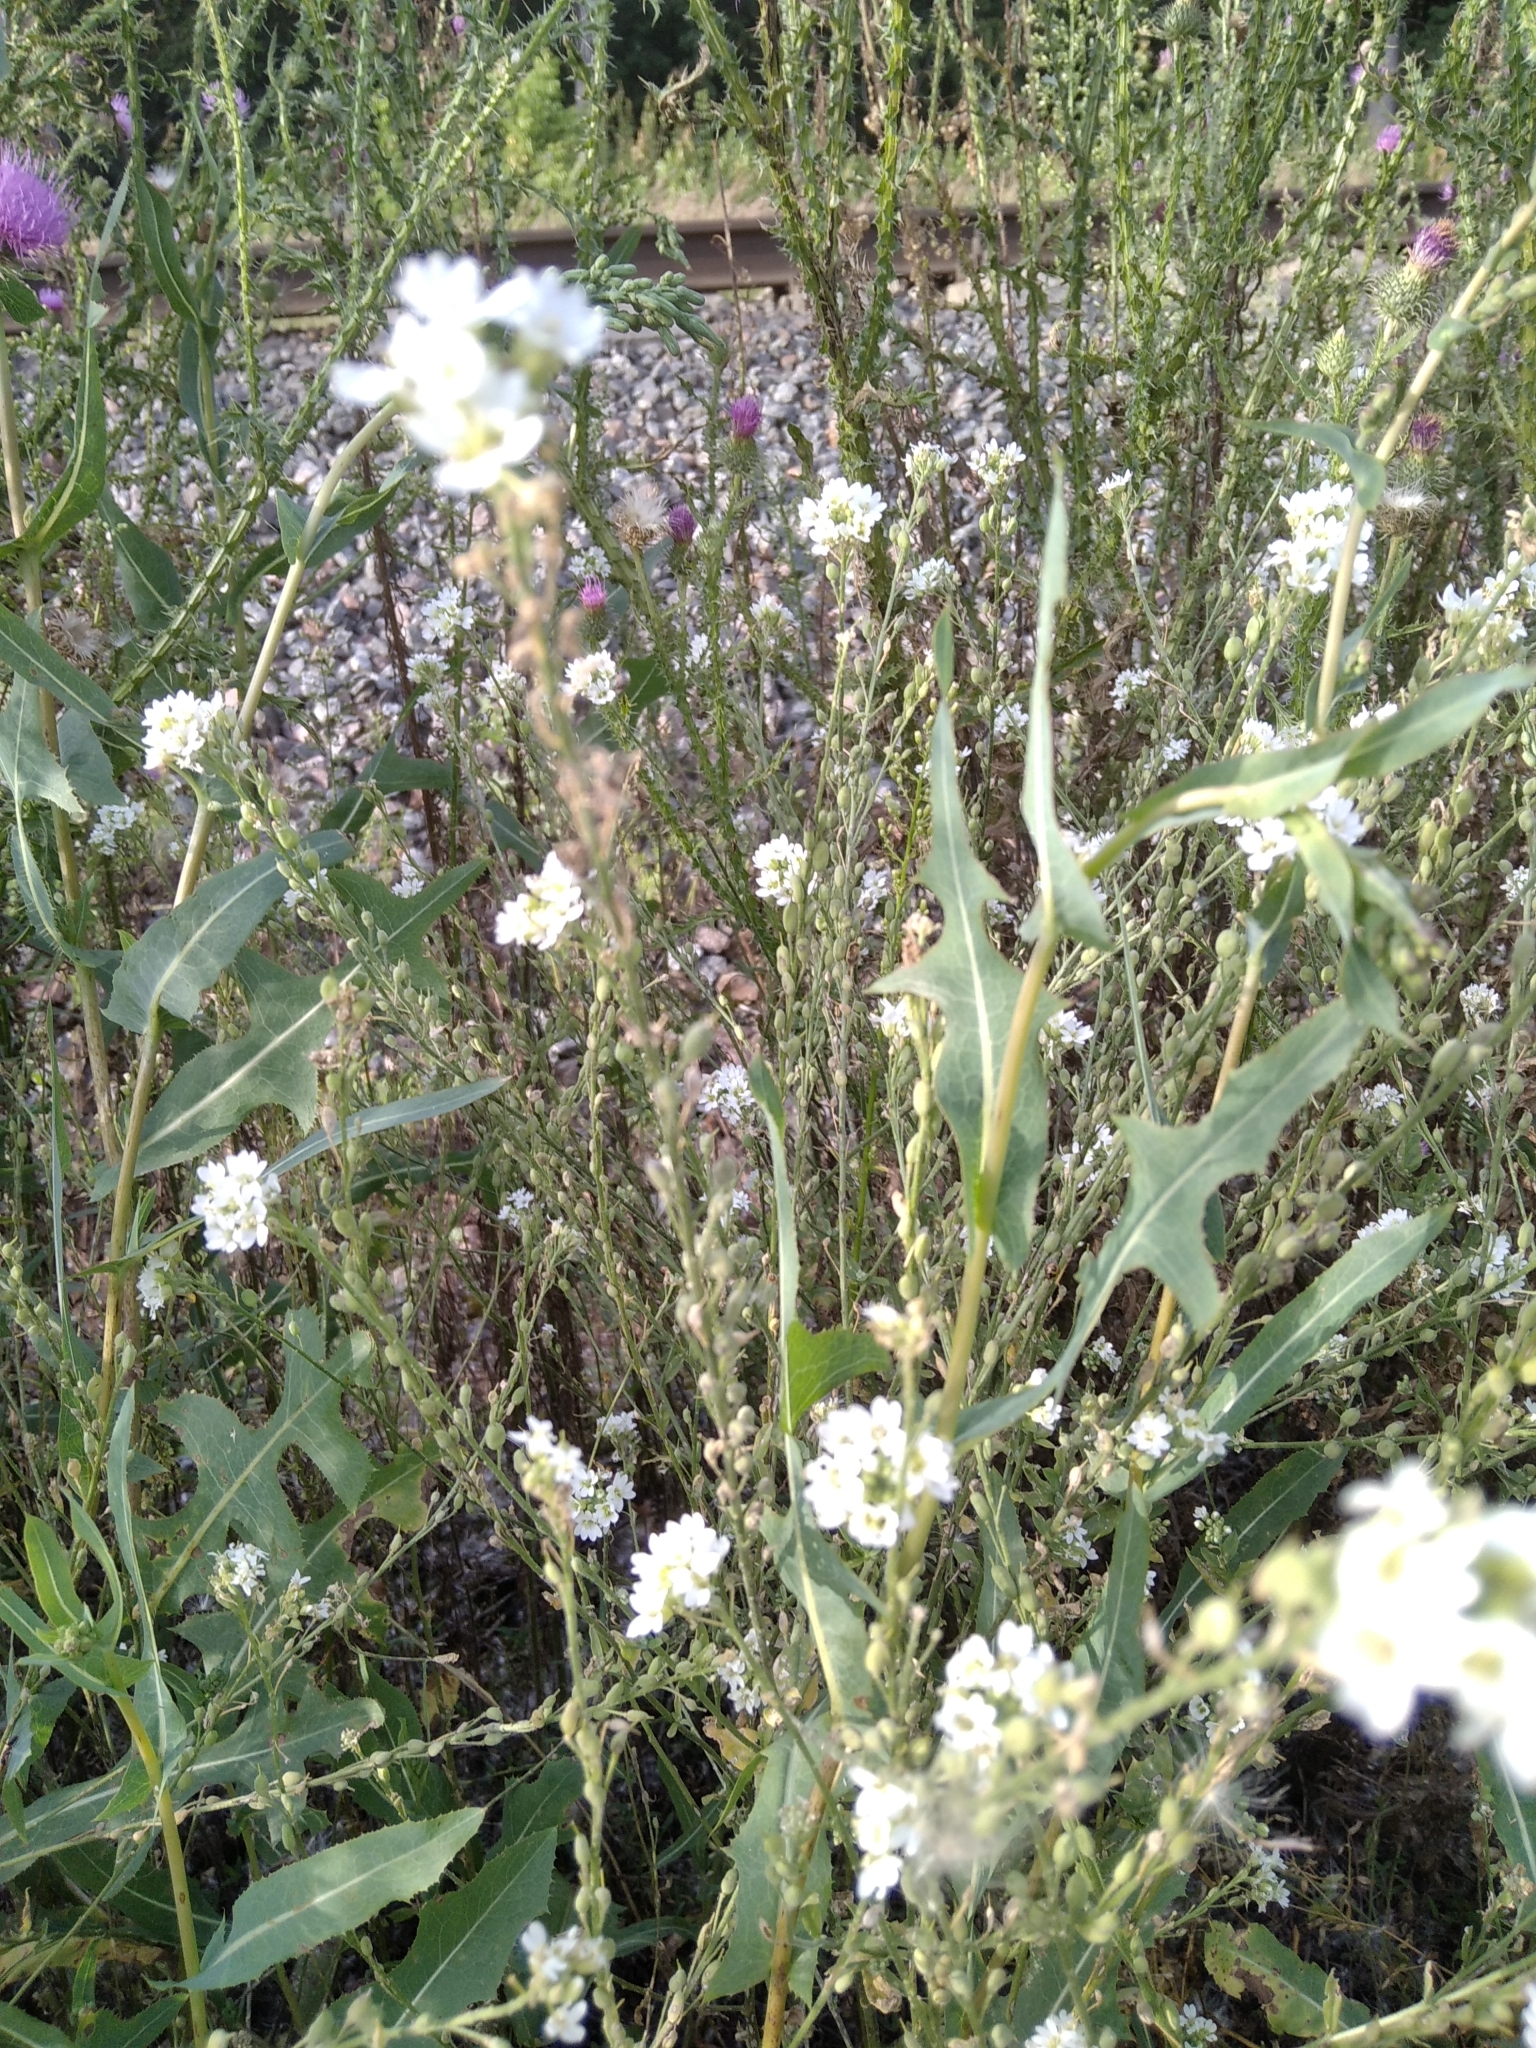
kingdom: Plantae
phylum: Tracheophyta
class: Magnoliopsida
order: Brassicales
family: Brassicaceae
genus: Berteroa
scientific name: Berteroa incana
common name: Hoary alison
